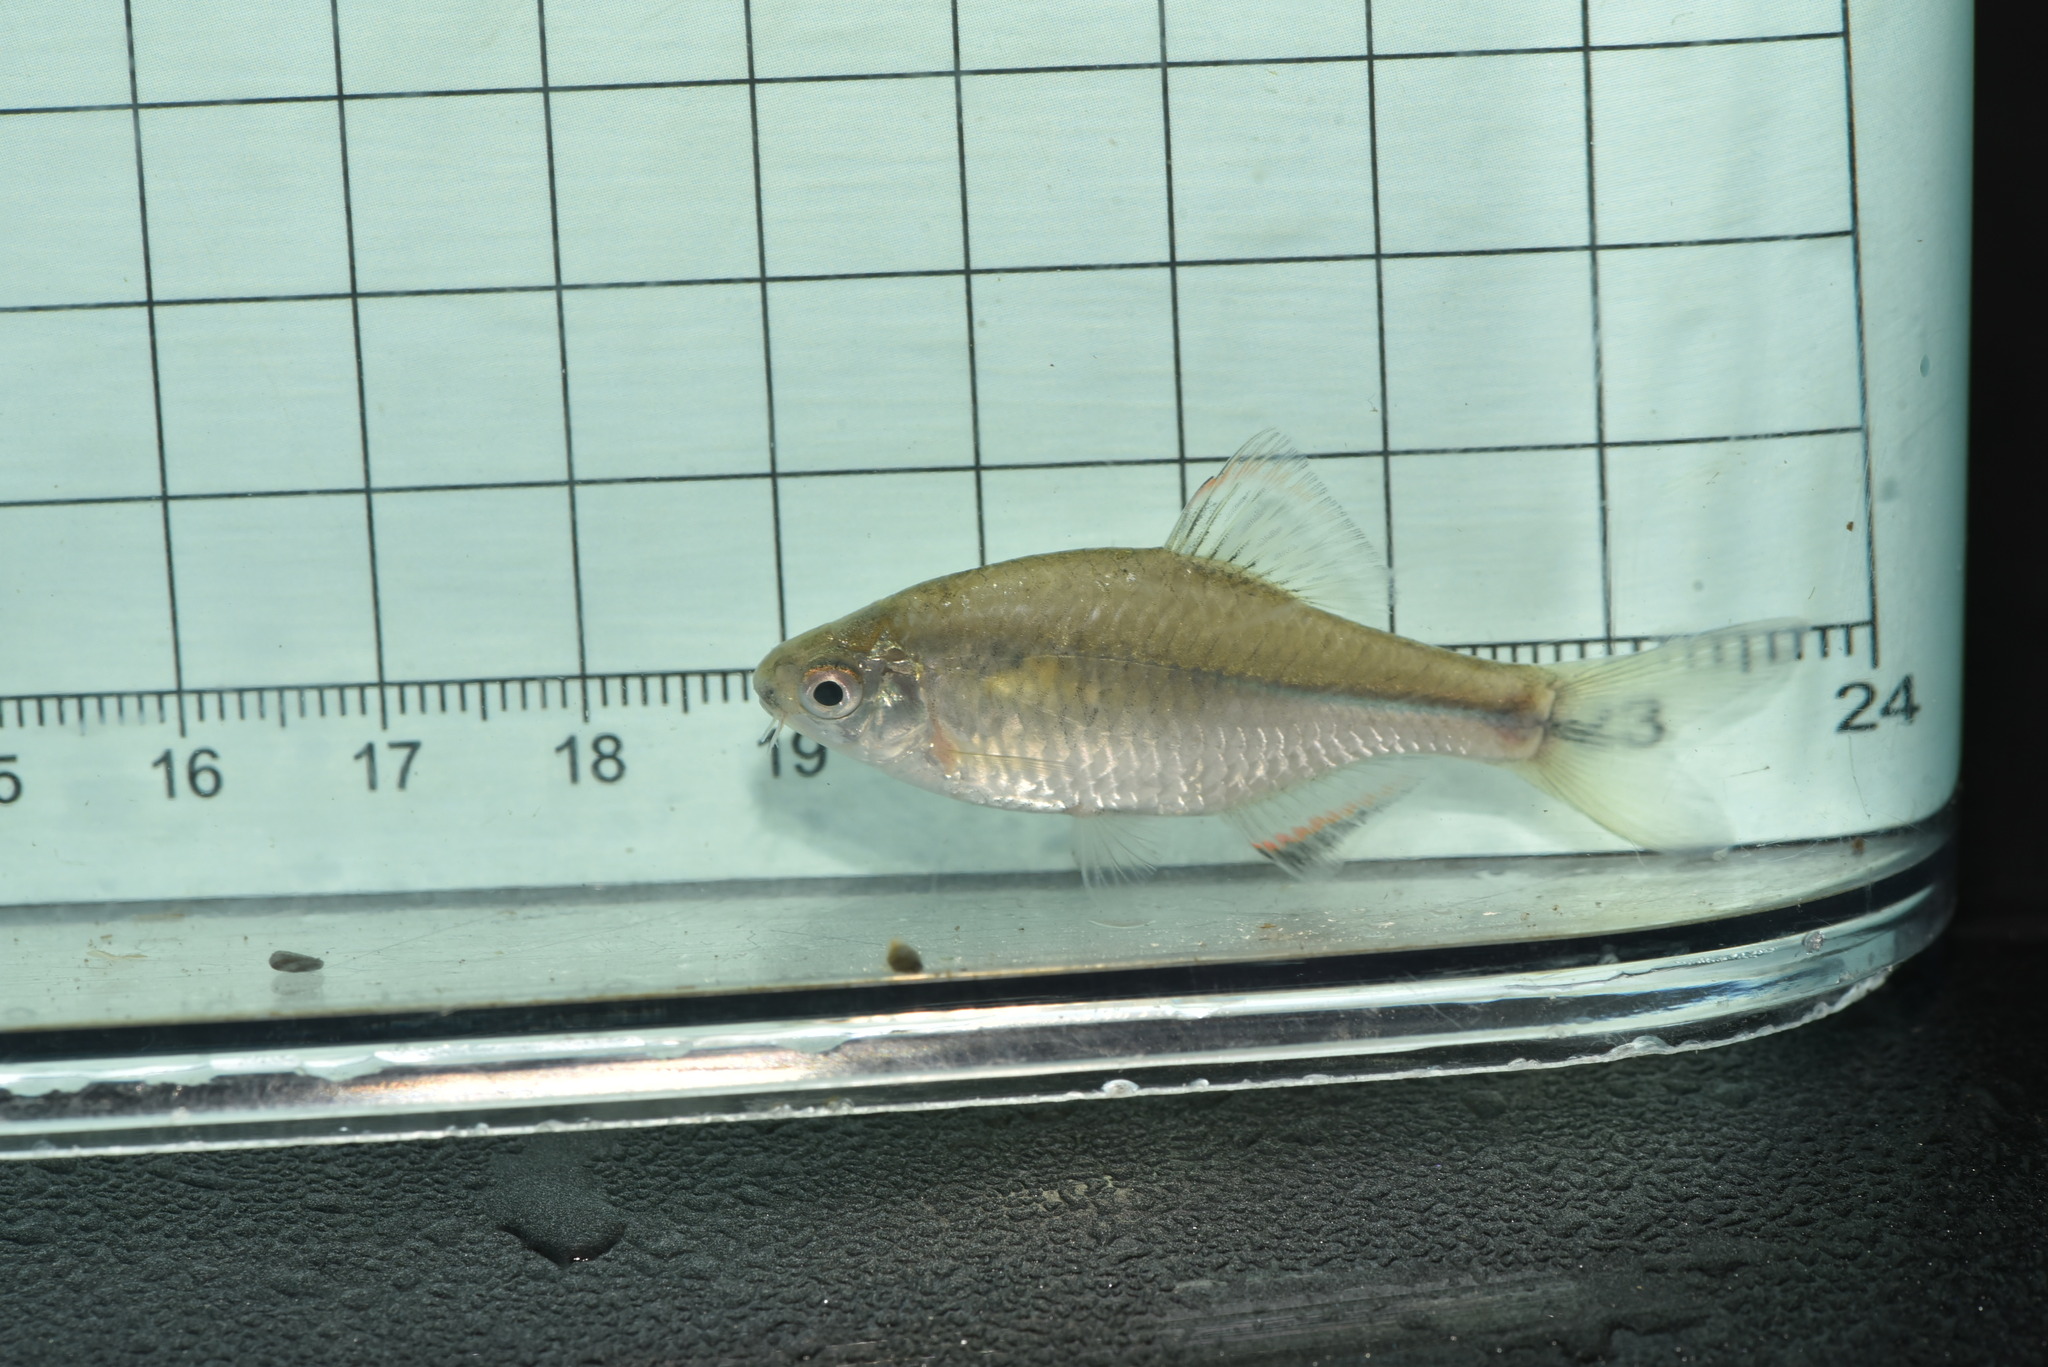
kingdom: Animalia
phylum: Chordata
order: Cypriniformes
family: Cyprinidae
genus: Paratanakia
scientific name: Paratanakia himantegus
